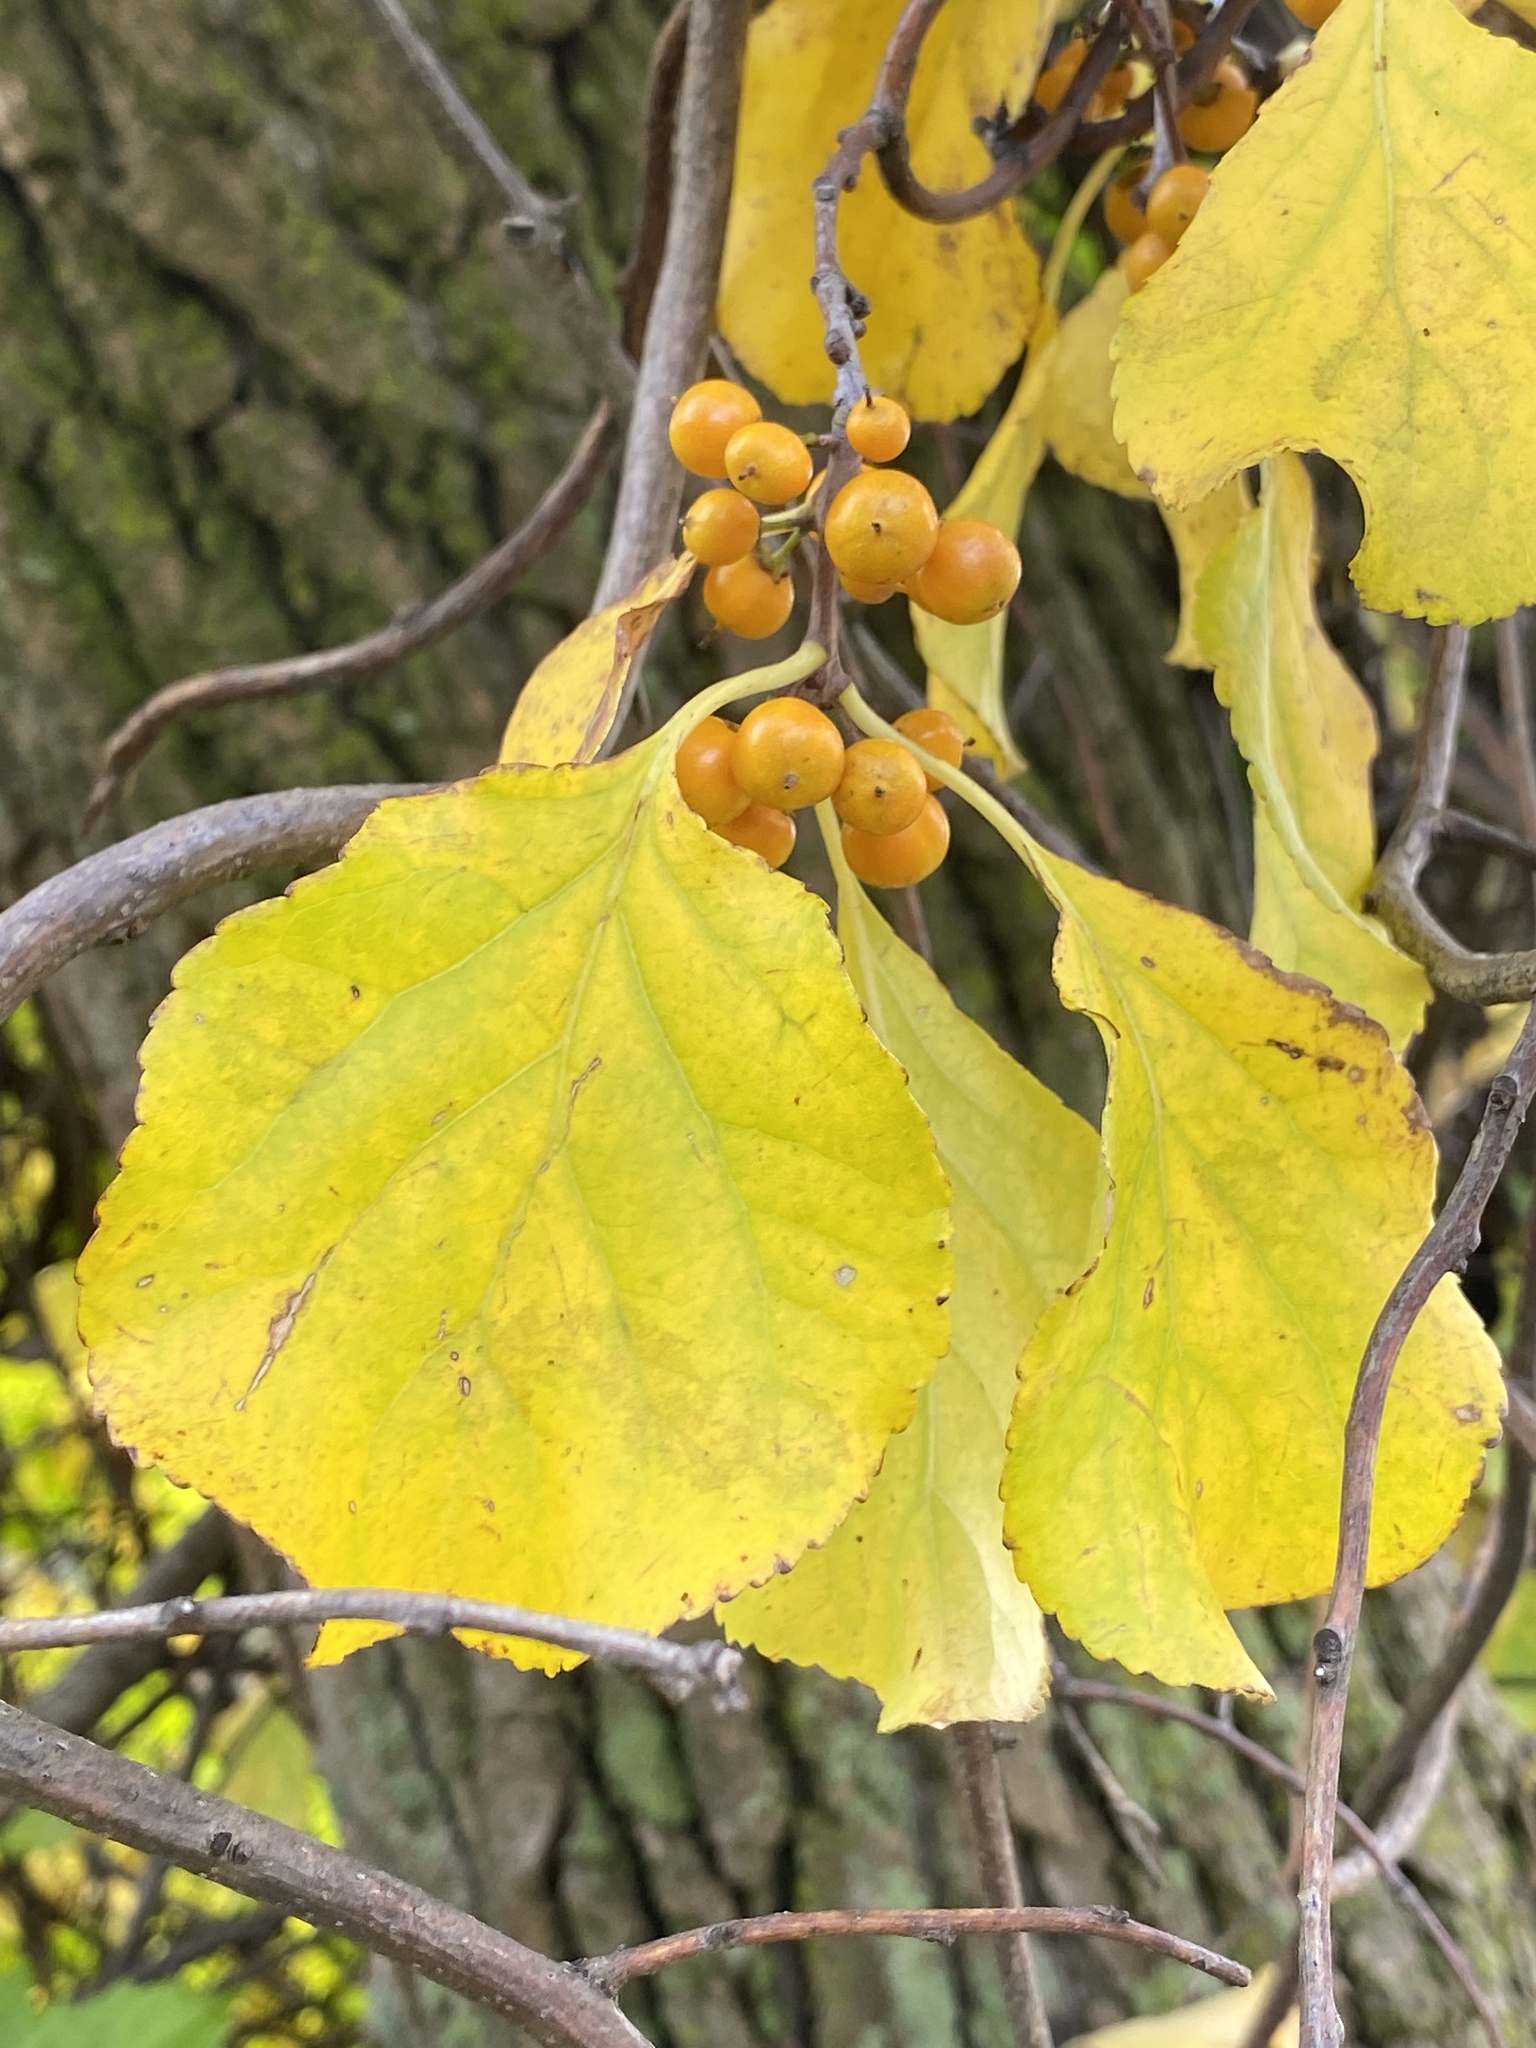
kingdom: Plantae
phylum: Tracheophyta
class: Magnoliopsida
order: Celastrales
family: Celastraceae
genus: Celastrus
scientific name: Celastrus orbiculatus
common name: Oriental bittersweet
